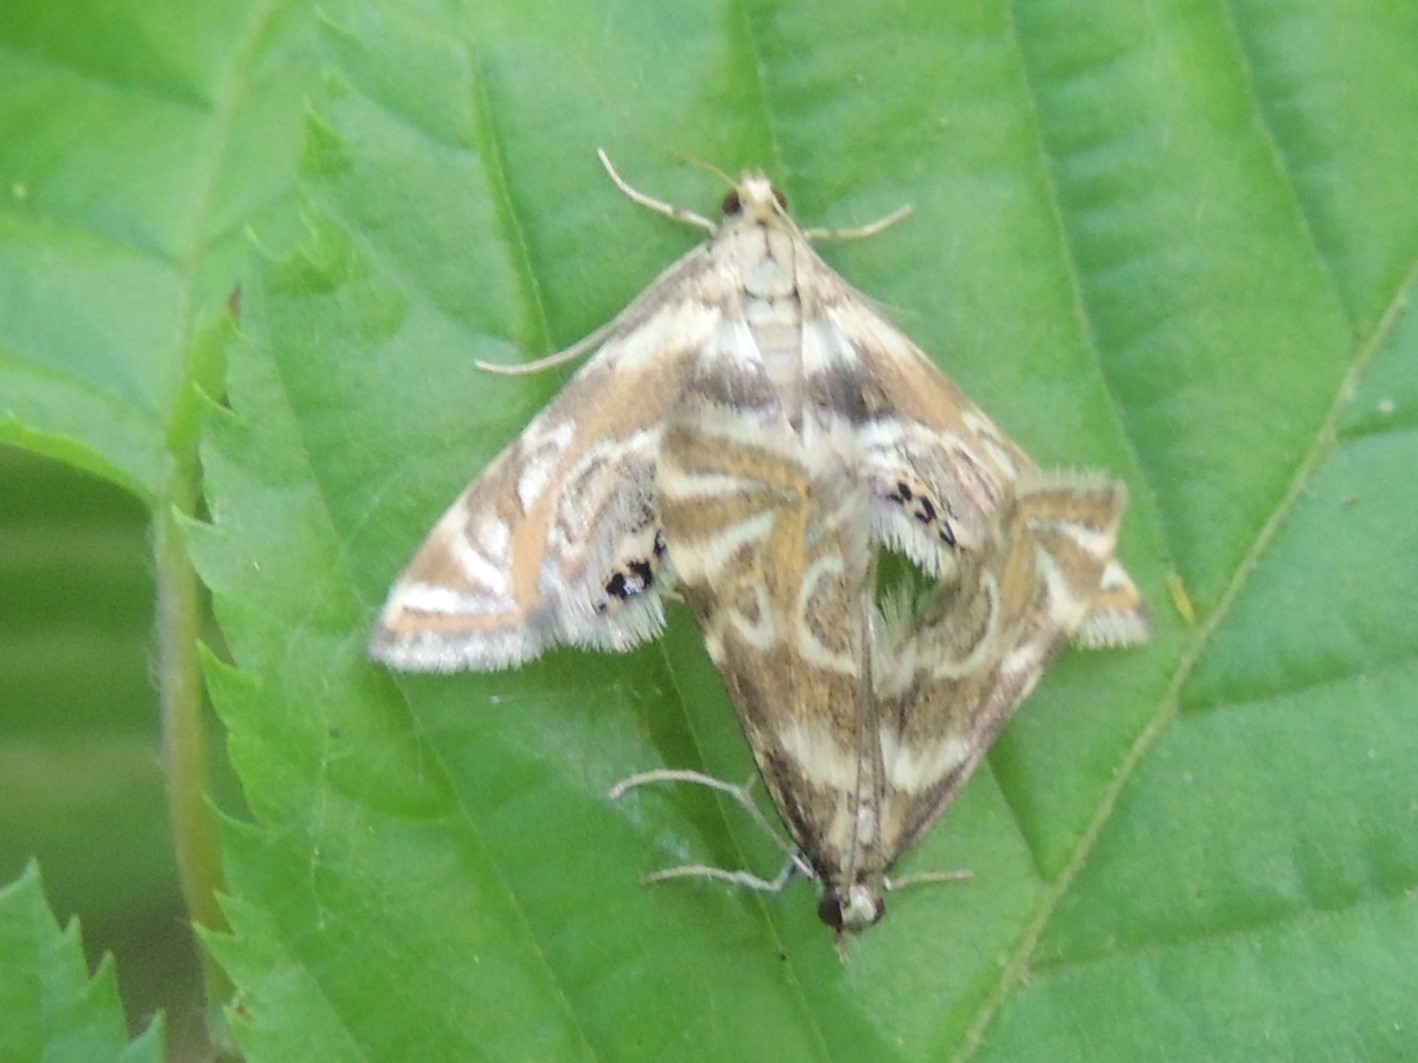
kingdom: Animalia
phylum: Arthropoda
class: Insecta
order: Lepidoptera
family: Crambidae
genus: Petrophila
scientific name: Petrophila canadensis
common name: Canadian petrophila
